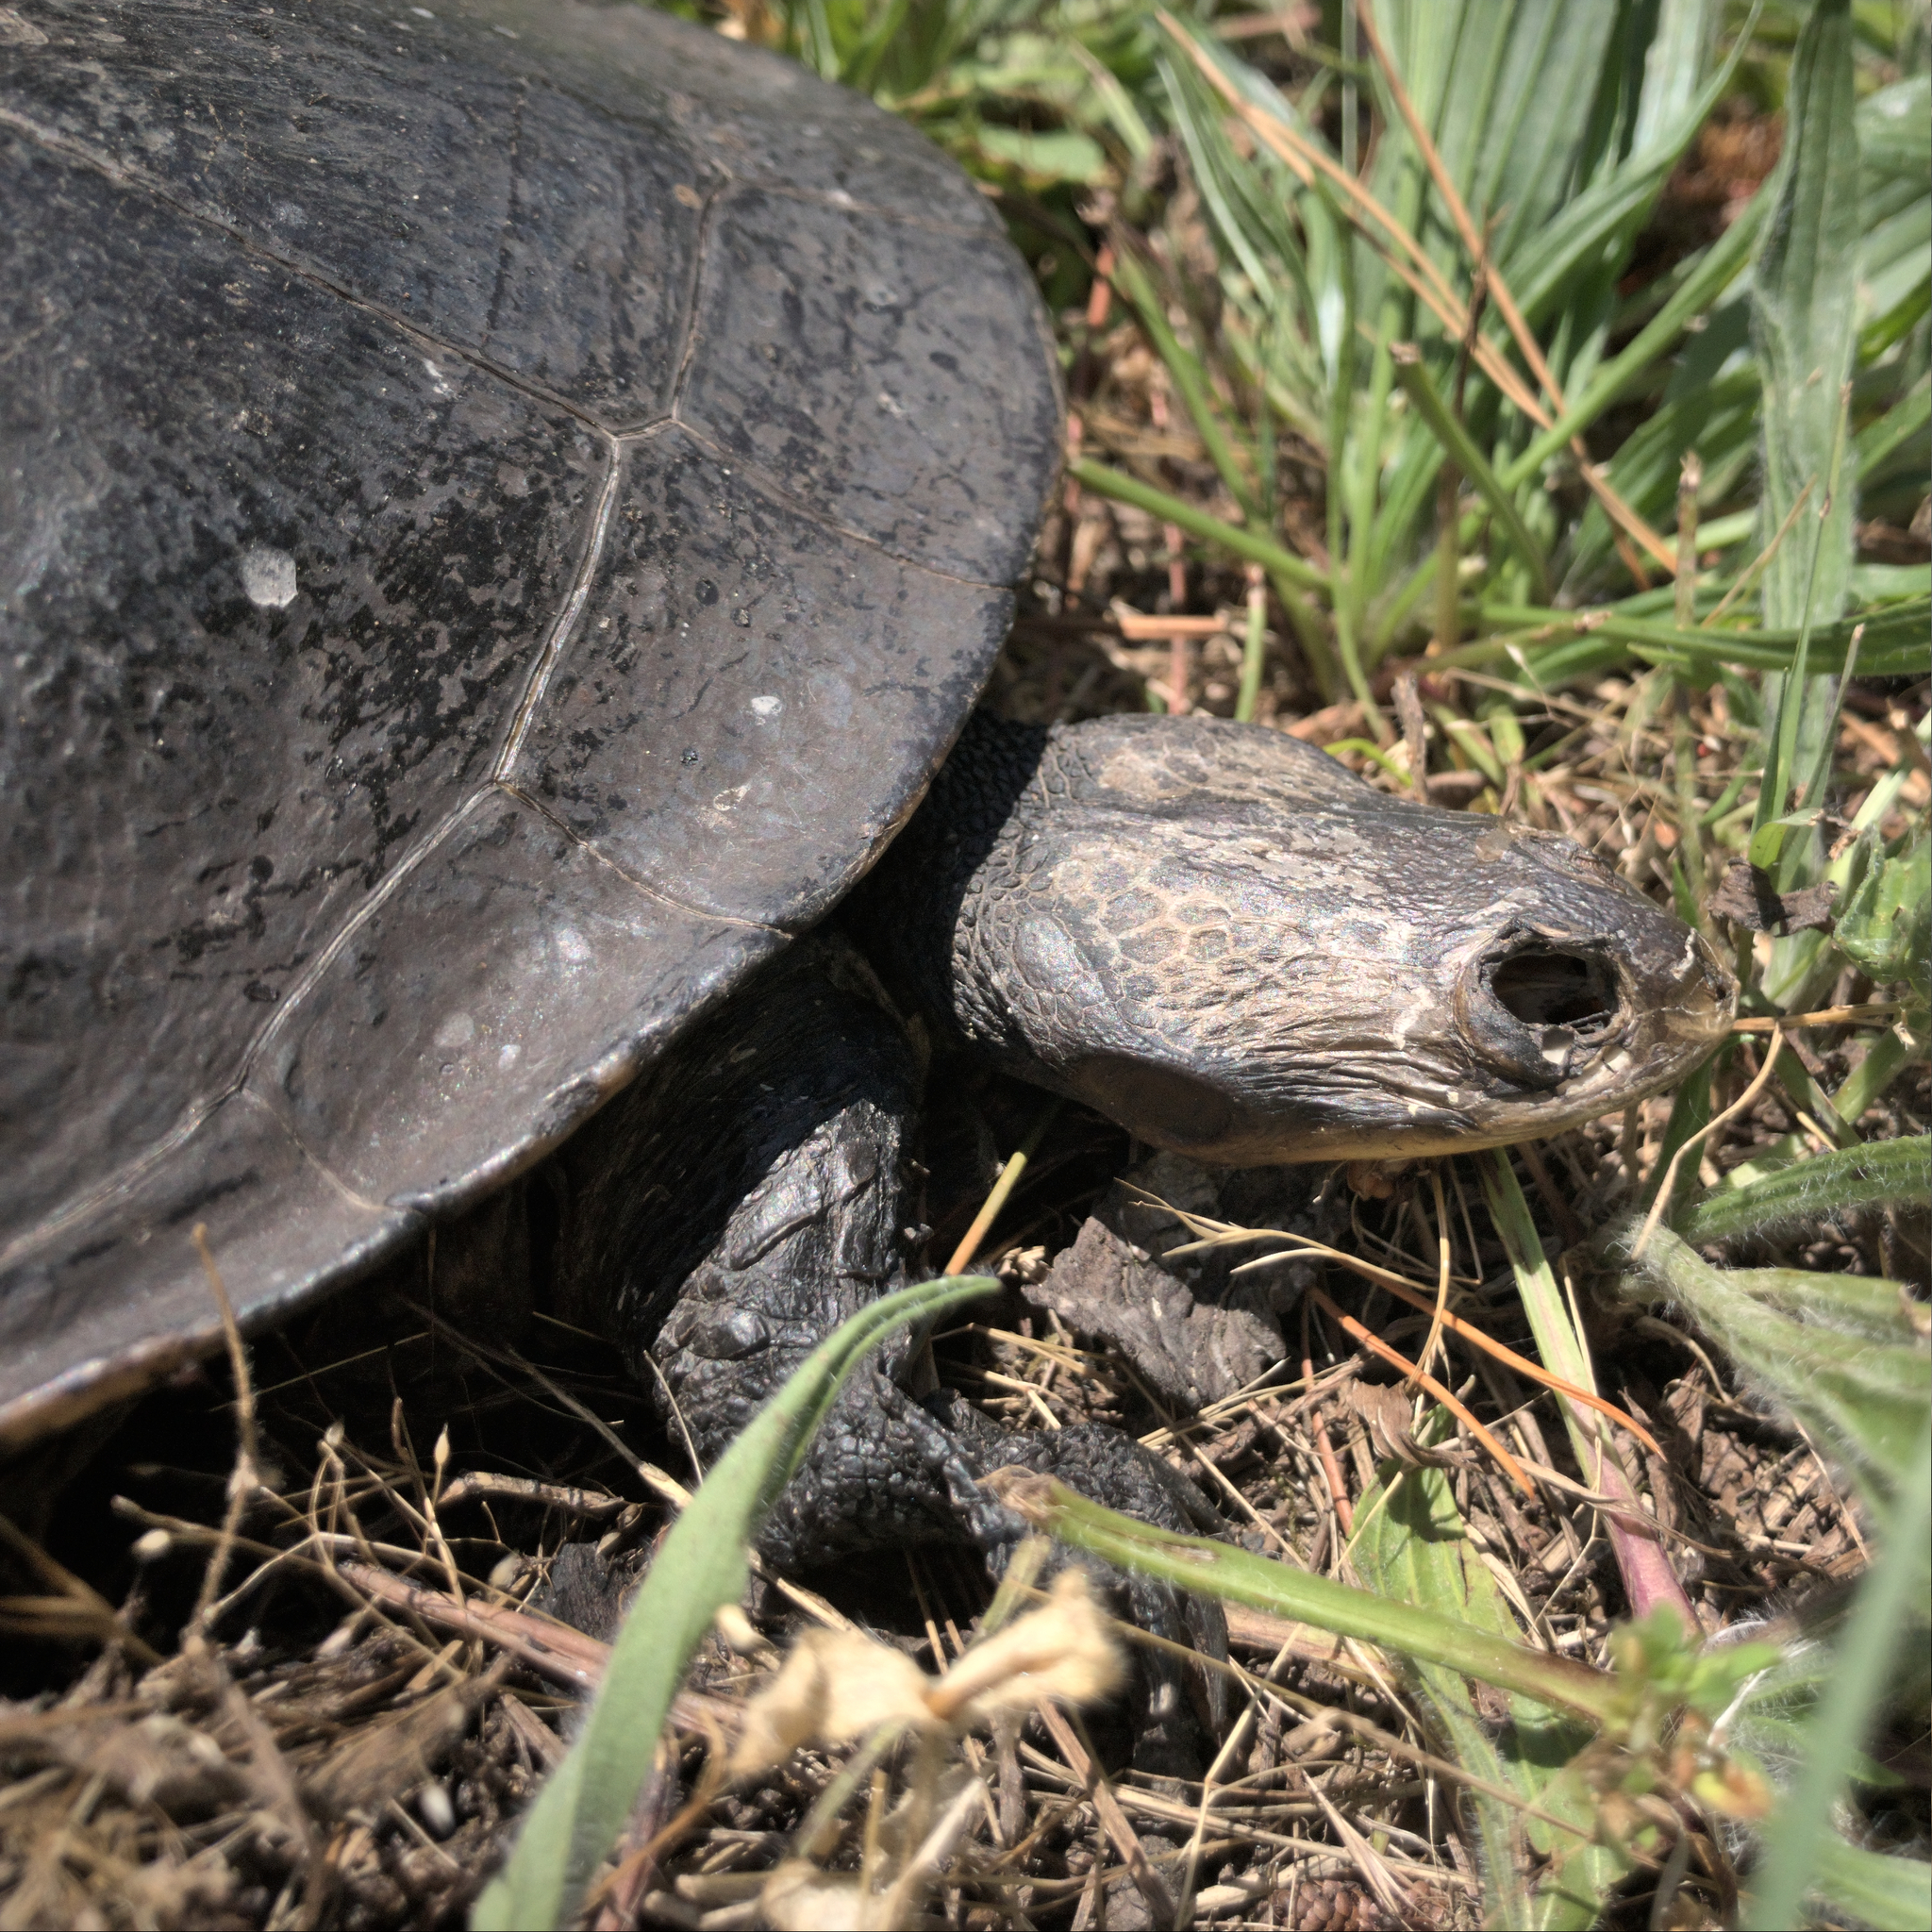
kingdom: Animalia
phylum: Chordata
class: Testudines
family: Chelidae
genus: Chelodina
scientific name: Chelodina longicollis
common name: Eastern snake-necked turtle
